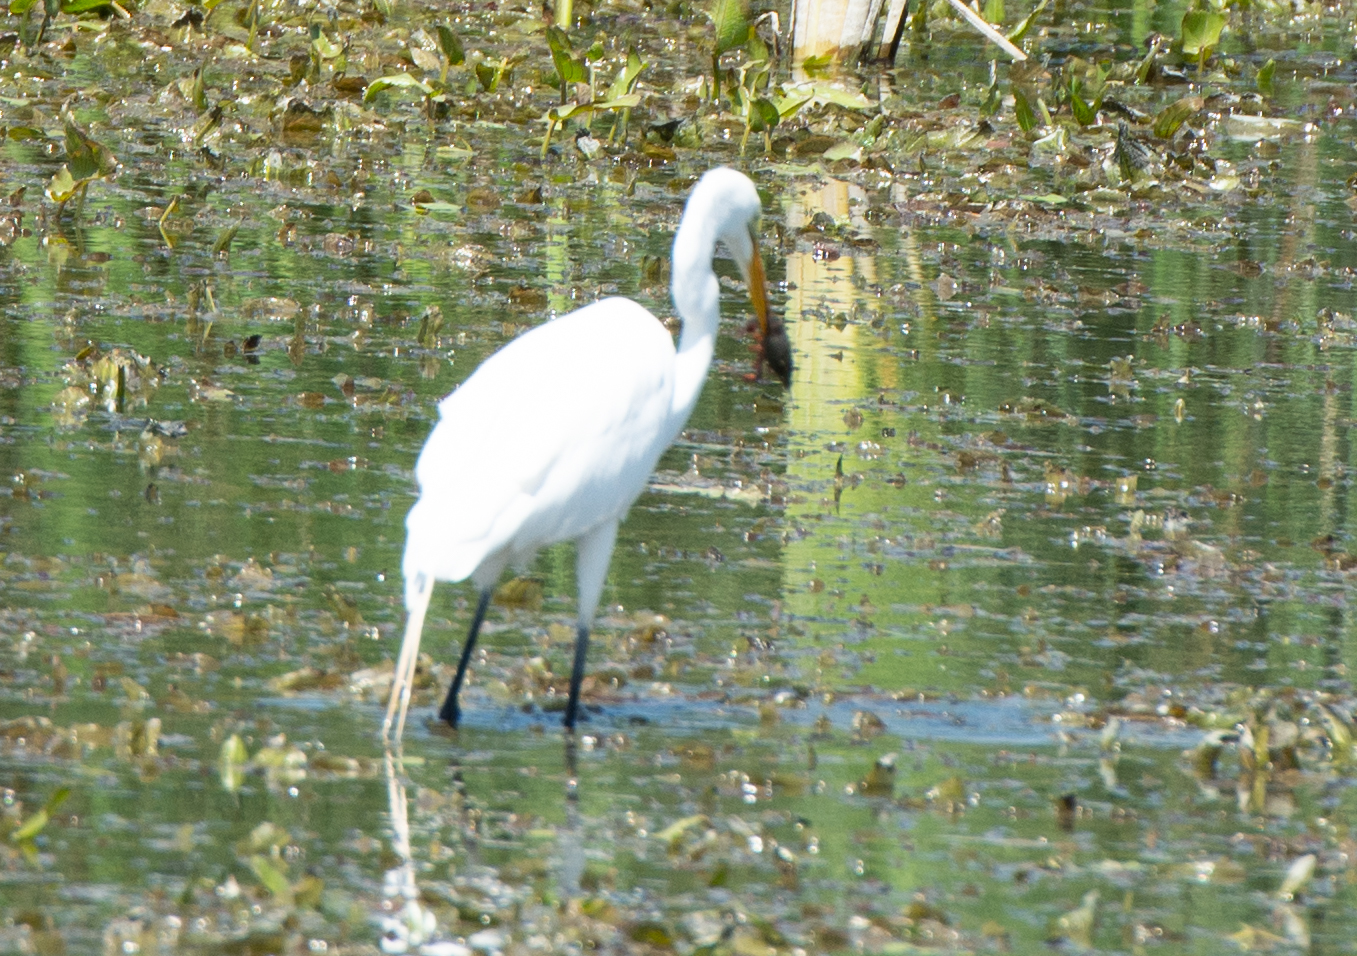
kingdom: Animalia
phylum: Chordata
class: Aves
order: Pelecaniformes
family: Ardeidae
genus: Ardea
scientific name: Ardea alba
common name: Great egret
